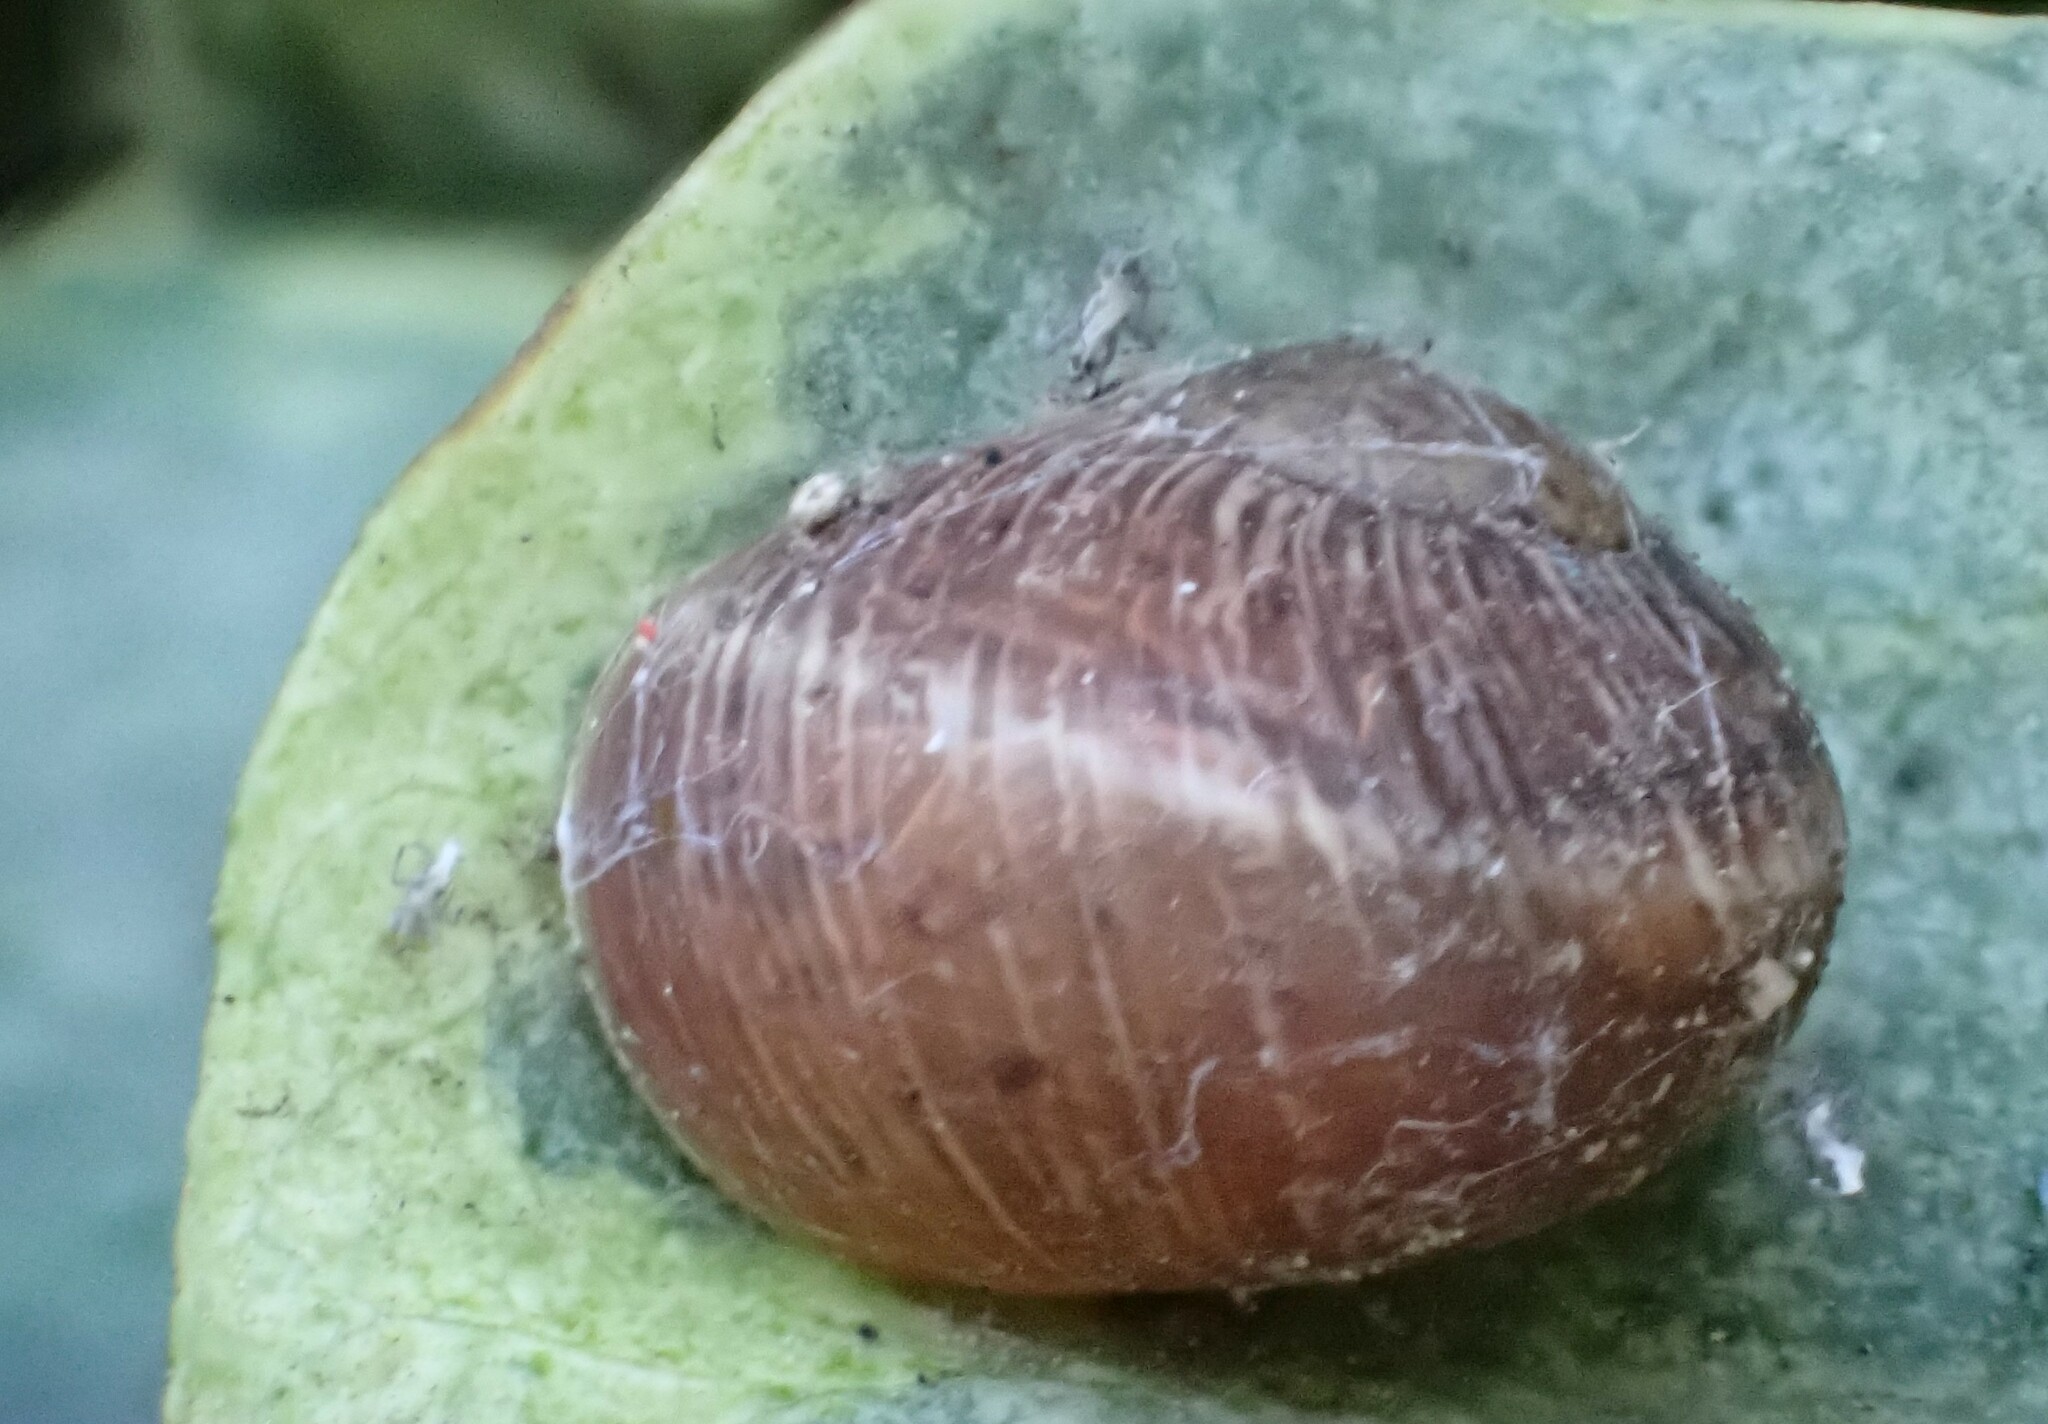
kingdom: Animalia
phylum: Mollusca
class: Gastropoda
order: Stylommatophora
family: Helicidae
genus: Cornu
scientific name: Cornu aspersum
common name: Brown garden snail
